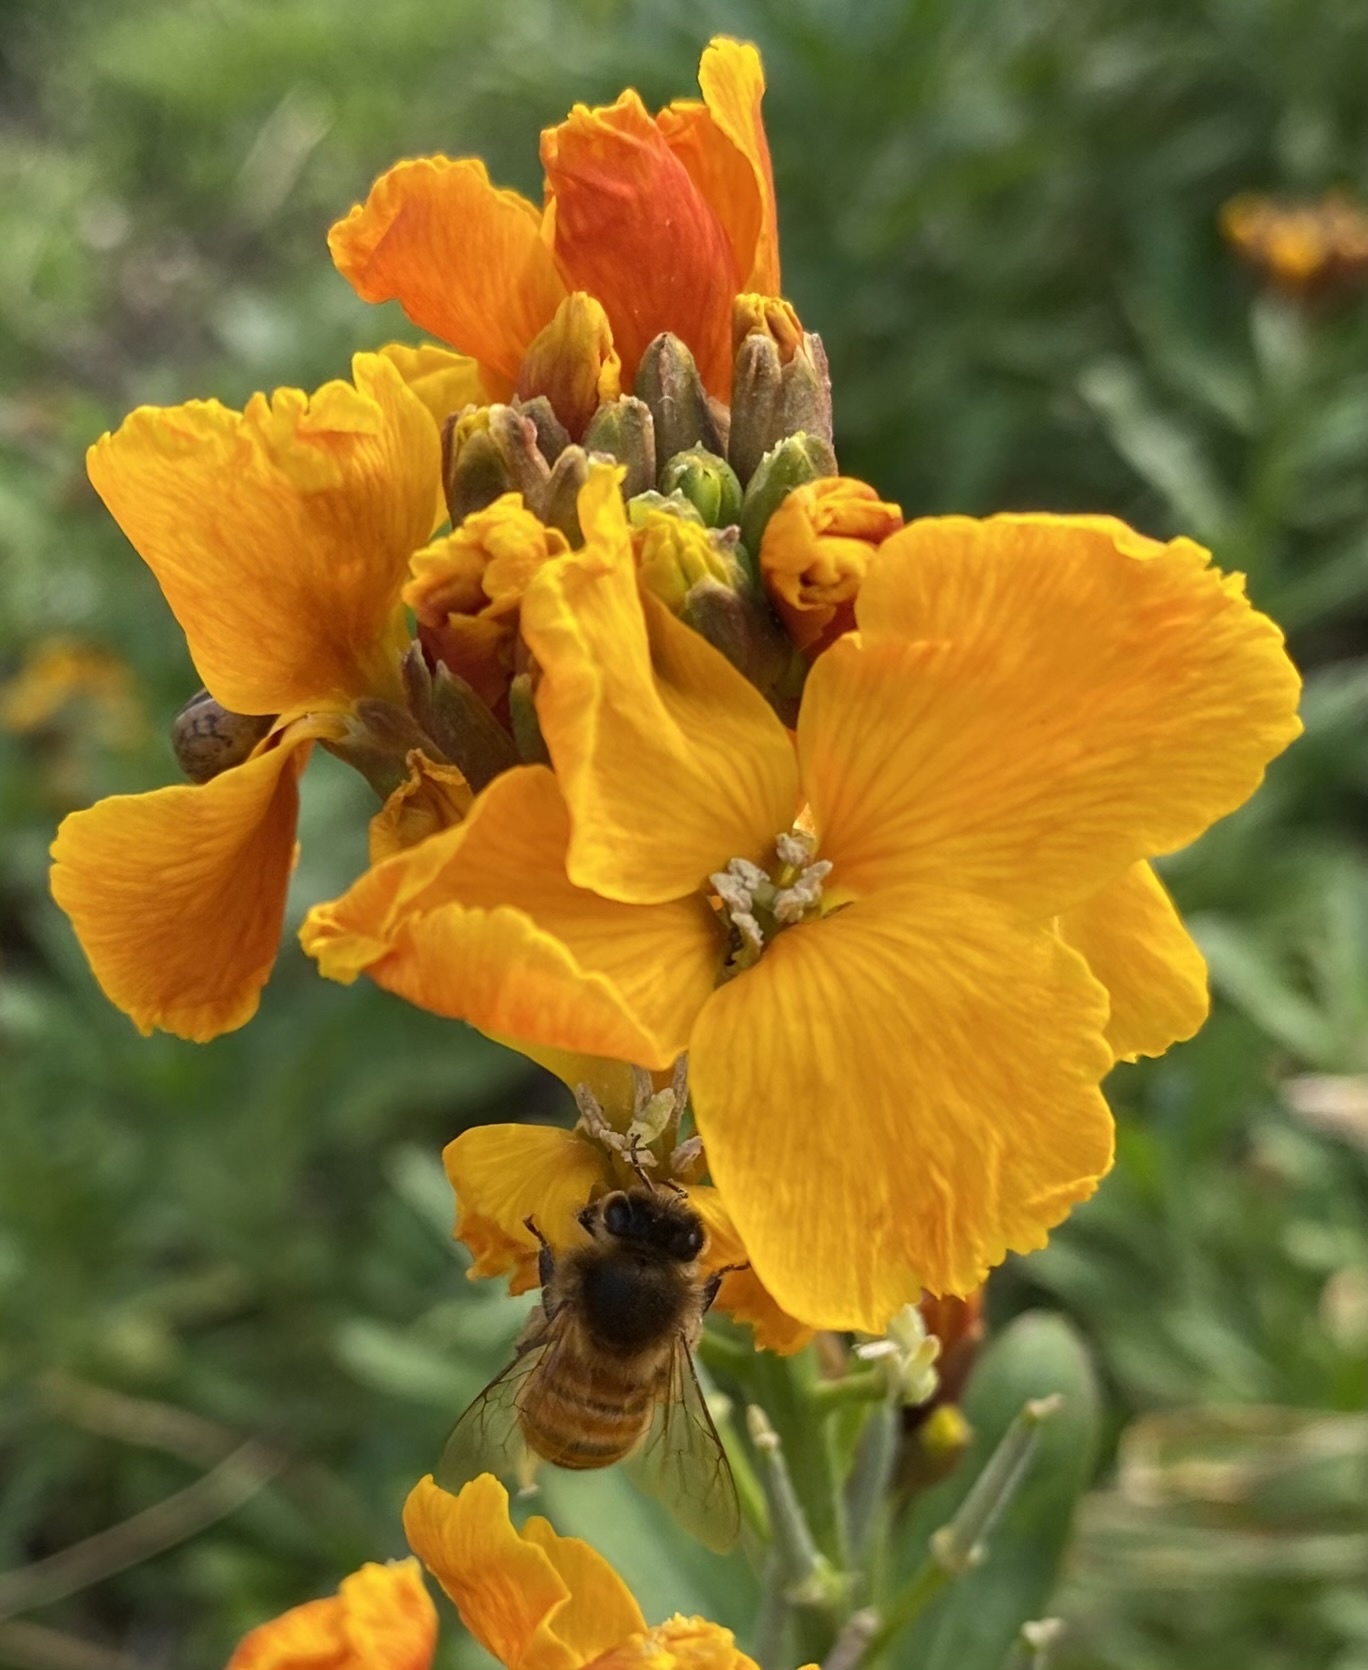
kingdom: Animalia
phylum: Arthropoda
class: Insecta
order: Hymenoptera
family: Apidae
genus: Apis
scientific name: Apis mellifera
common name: Honey bee
